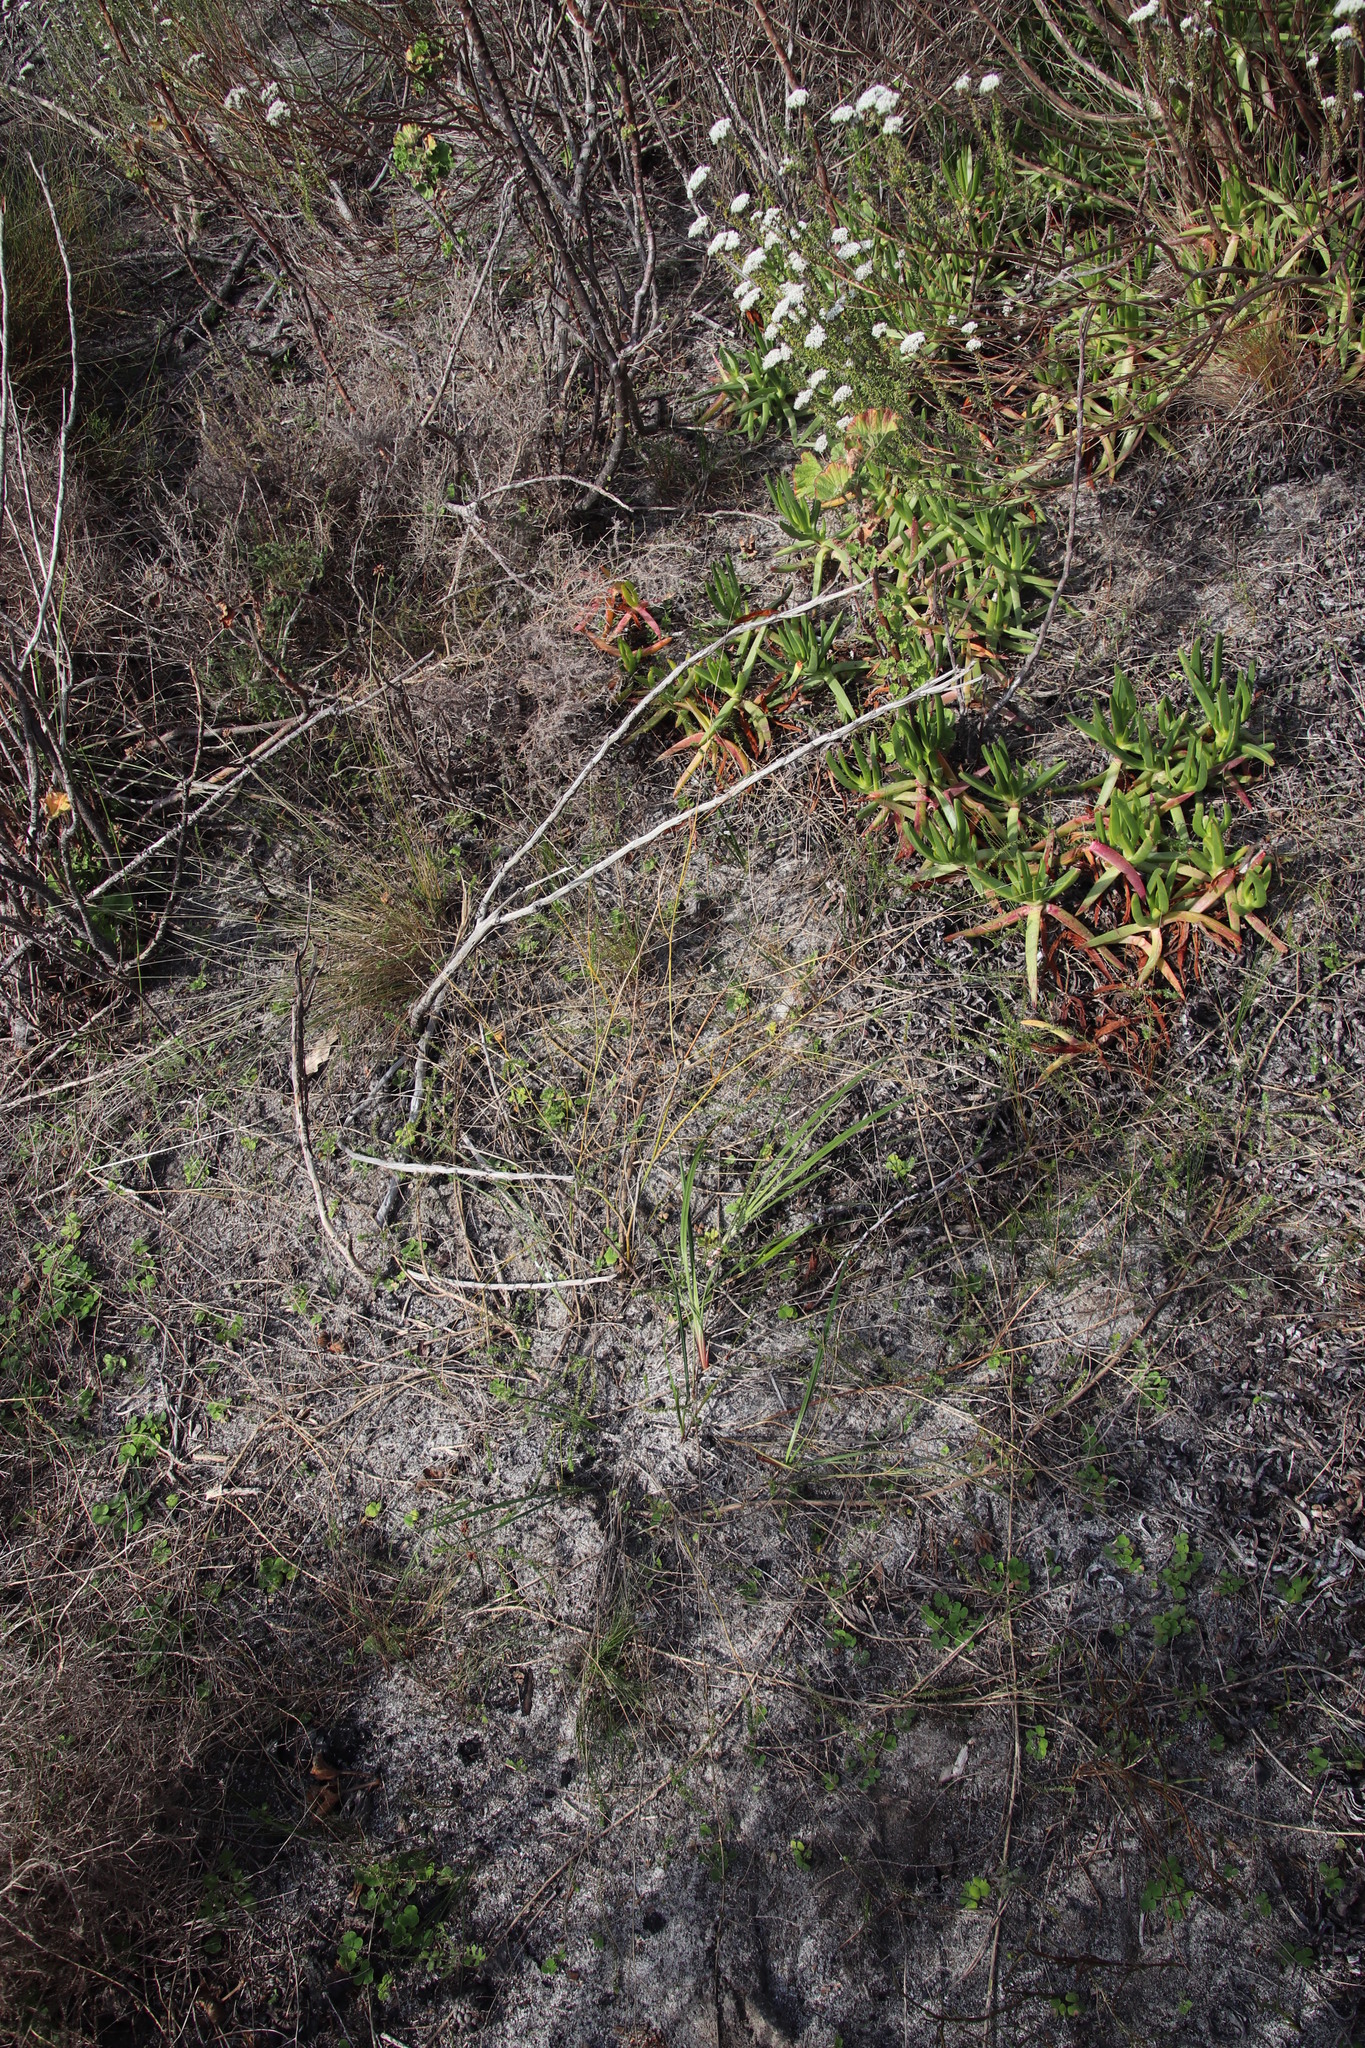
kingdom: Plantae
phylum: Tracheophyta
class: Liliopsida
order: Asparagales
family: Asphodelaceae
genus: Caesia
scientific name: Caesia contorta
